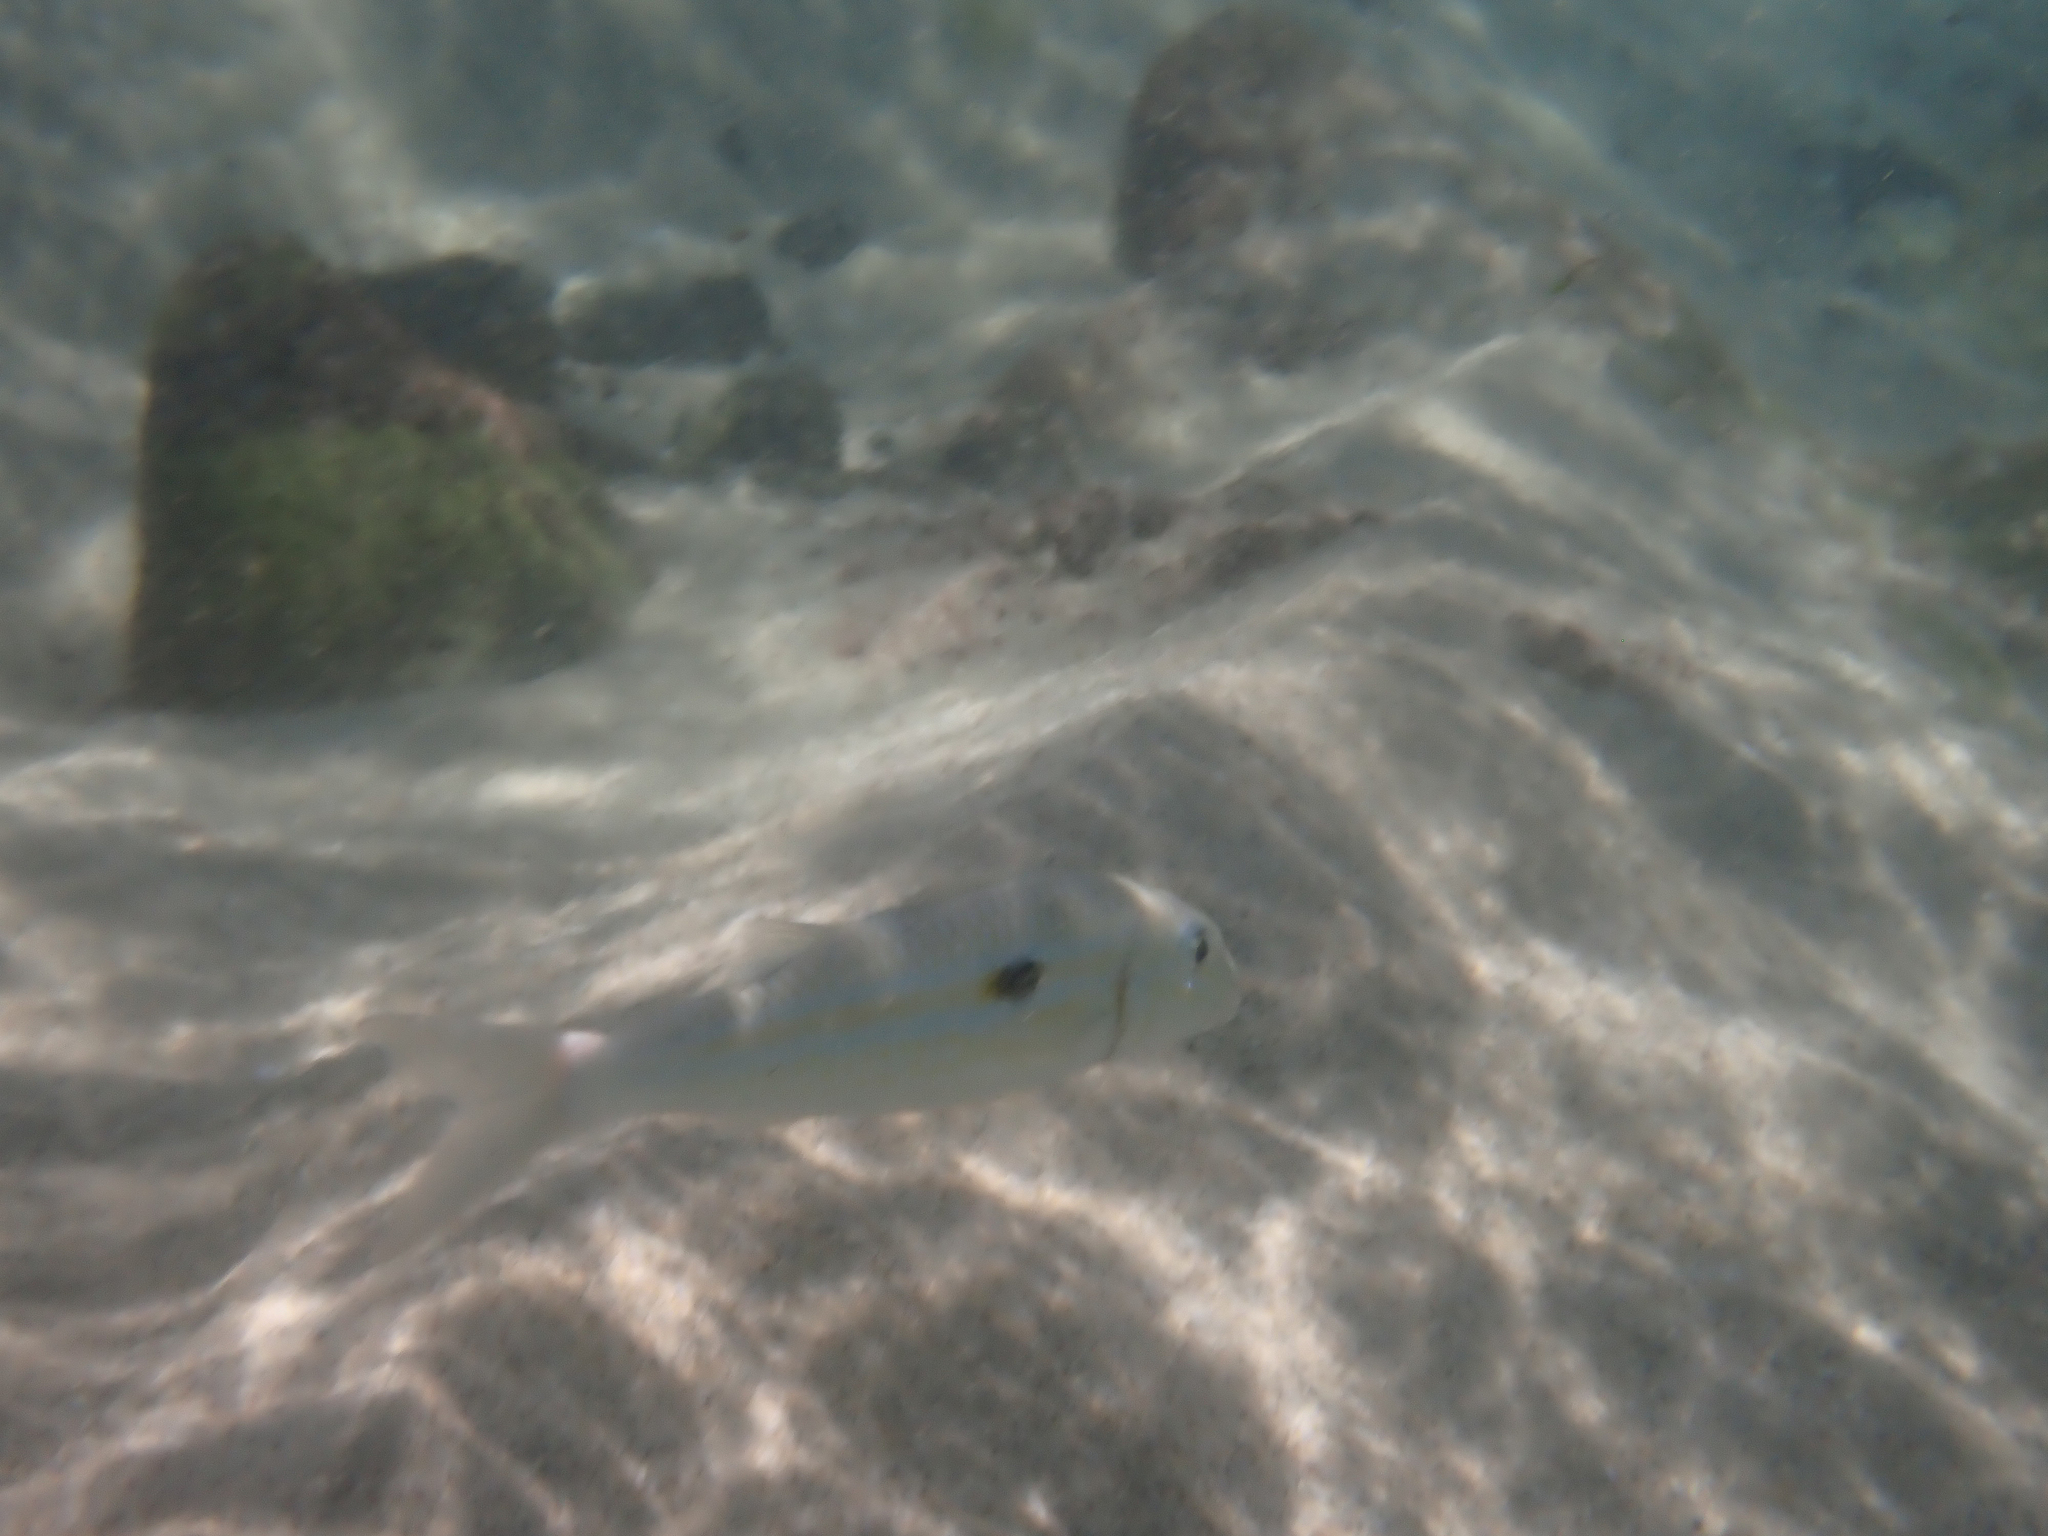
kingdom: Animalia
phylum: Chordata
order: Perciformes
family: Mullidae
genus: Mulloidichthys
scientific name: Mulloidichthys flavolineatus
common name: Yellowstripe goatfish
